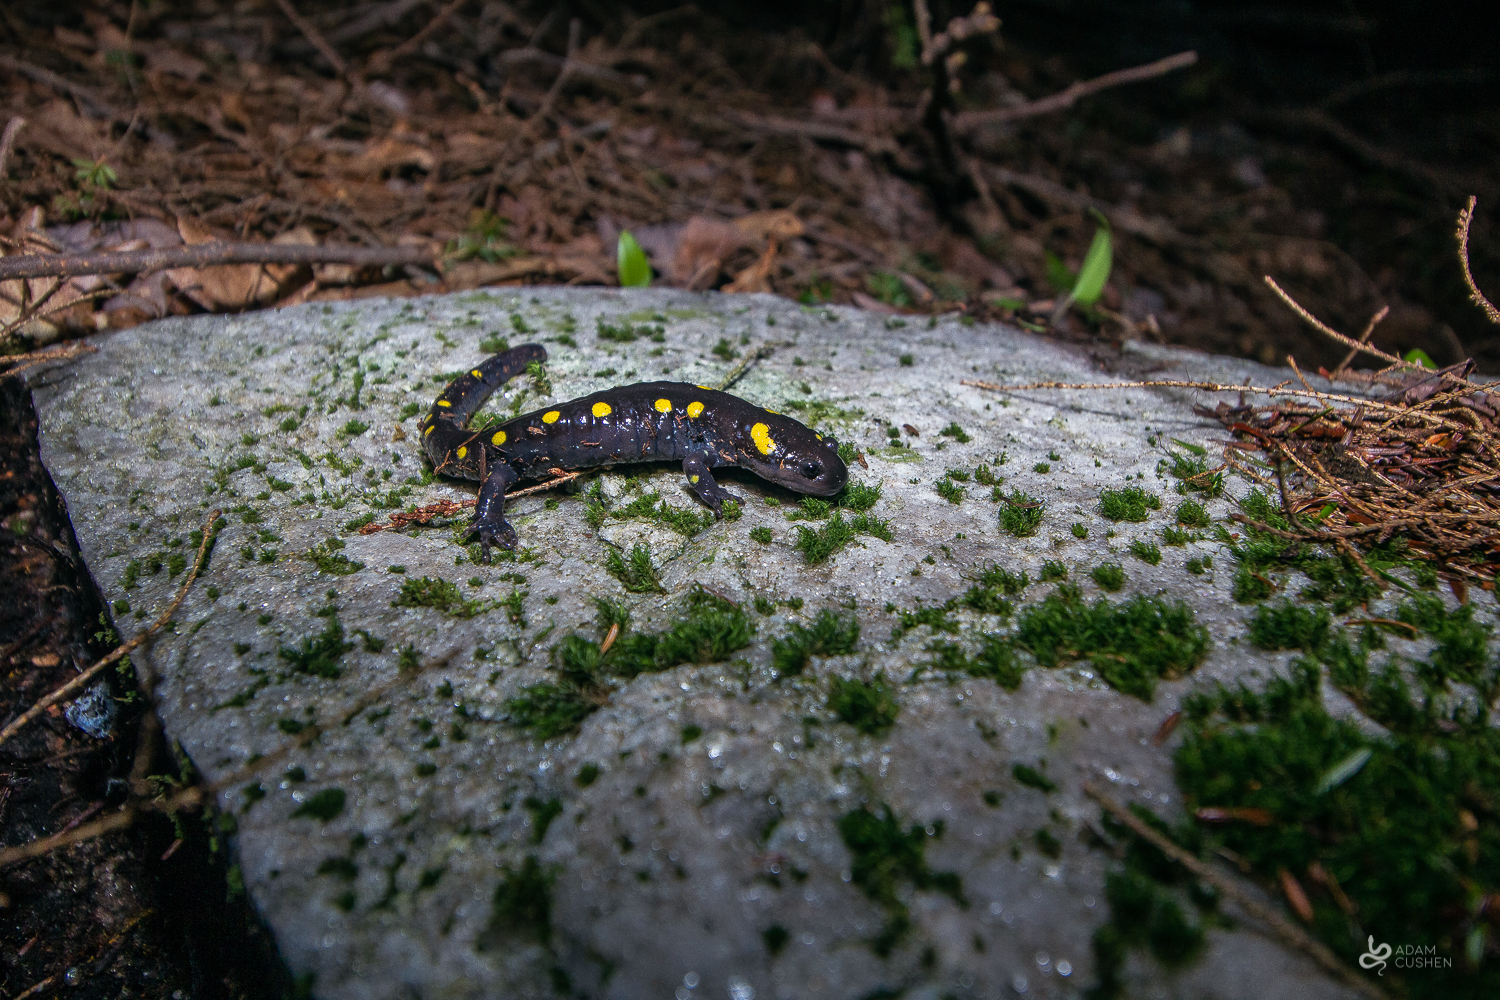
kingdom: Animalia
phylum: Chordata
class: Amphibia
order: Caudata
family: Ambystomatidae
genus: Ambystoma
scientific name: Ambystoma maculatum
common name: Spotted salamander
